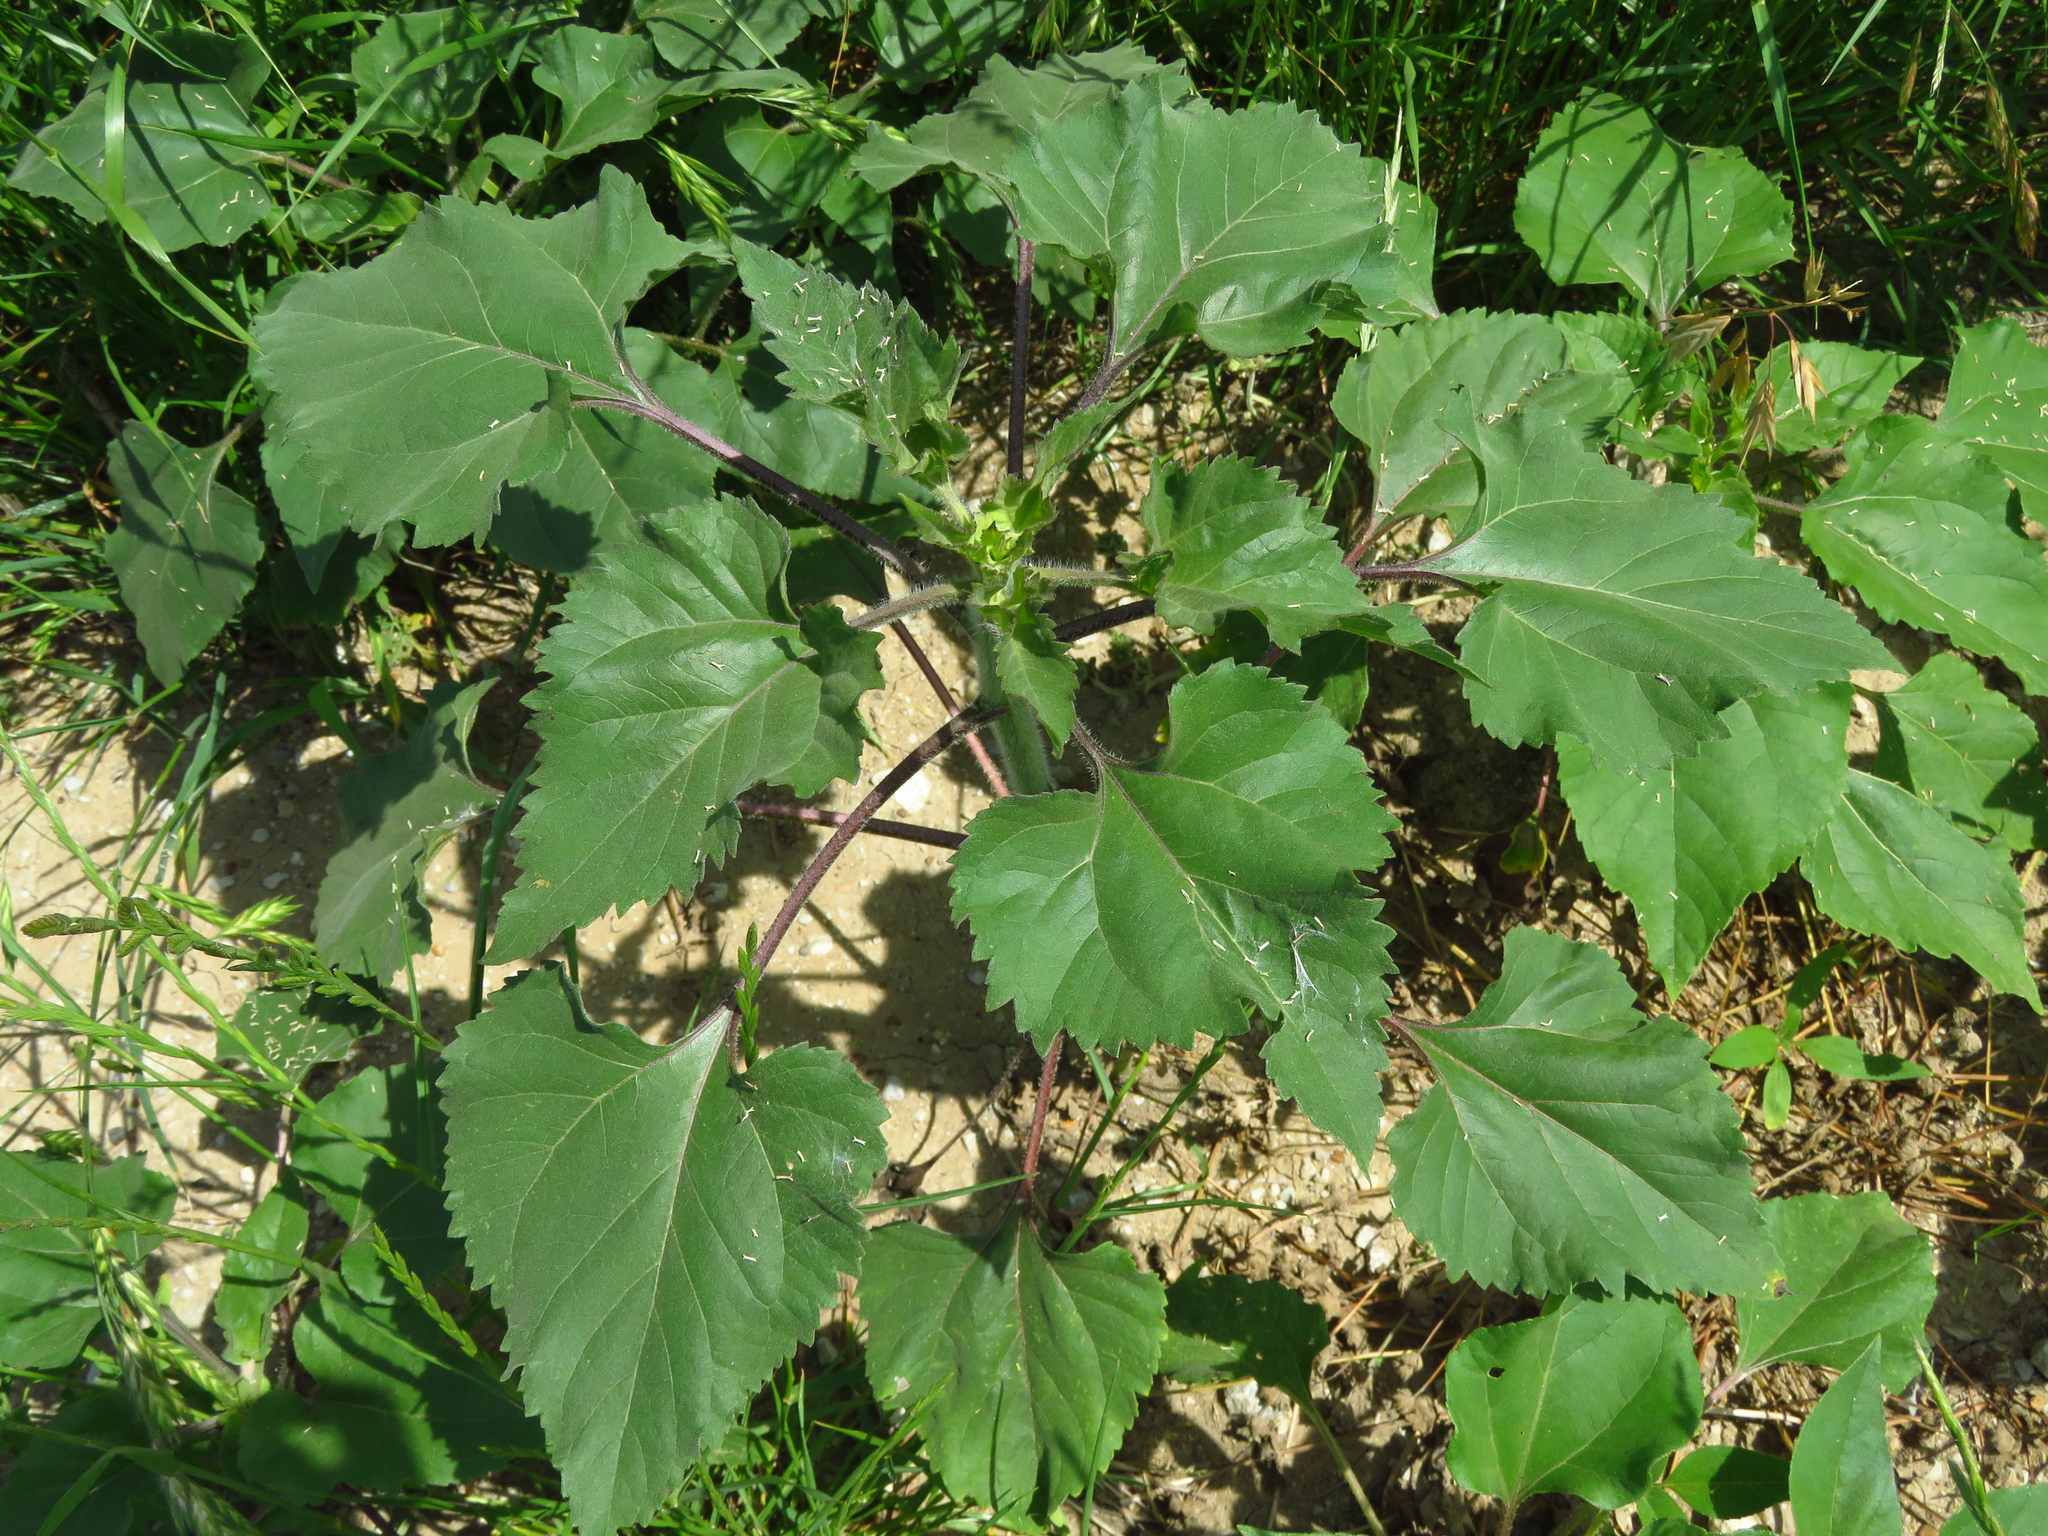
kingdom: Plantae
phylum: Tracheophyta
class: Magnoliopsida
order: Asterales
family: Asteraceae
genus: Helianthus
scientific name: Helianthus annuus
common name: Sunflower
